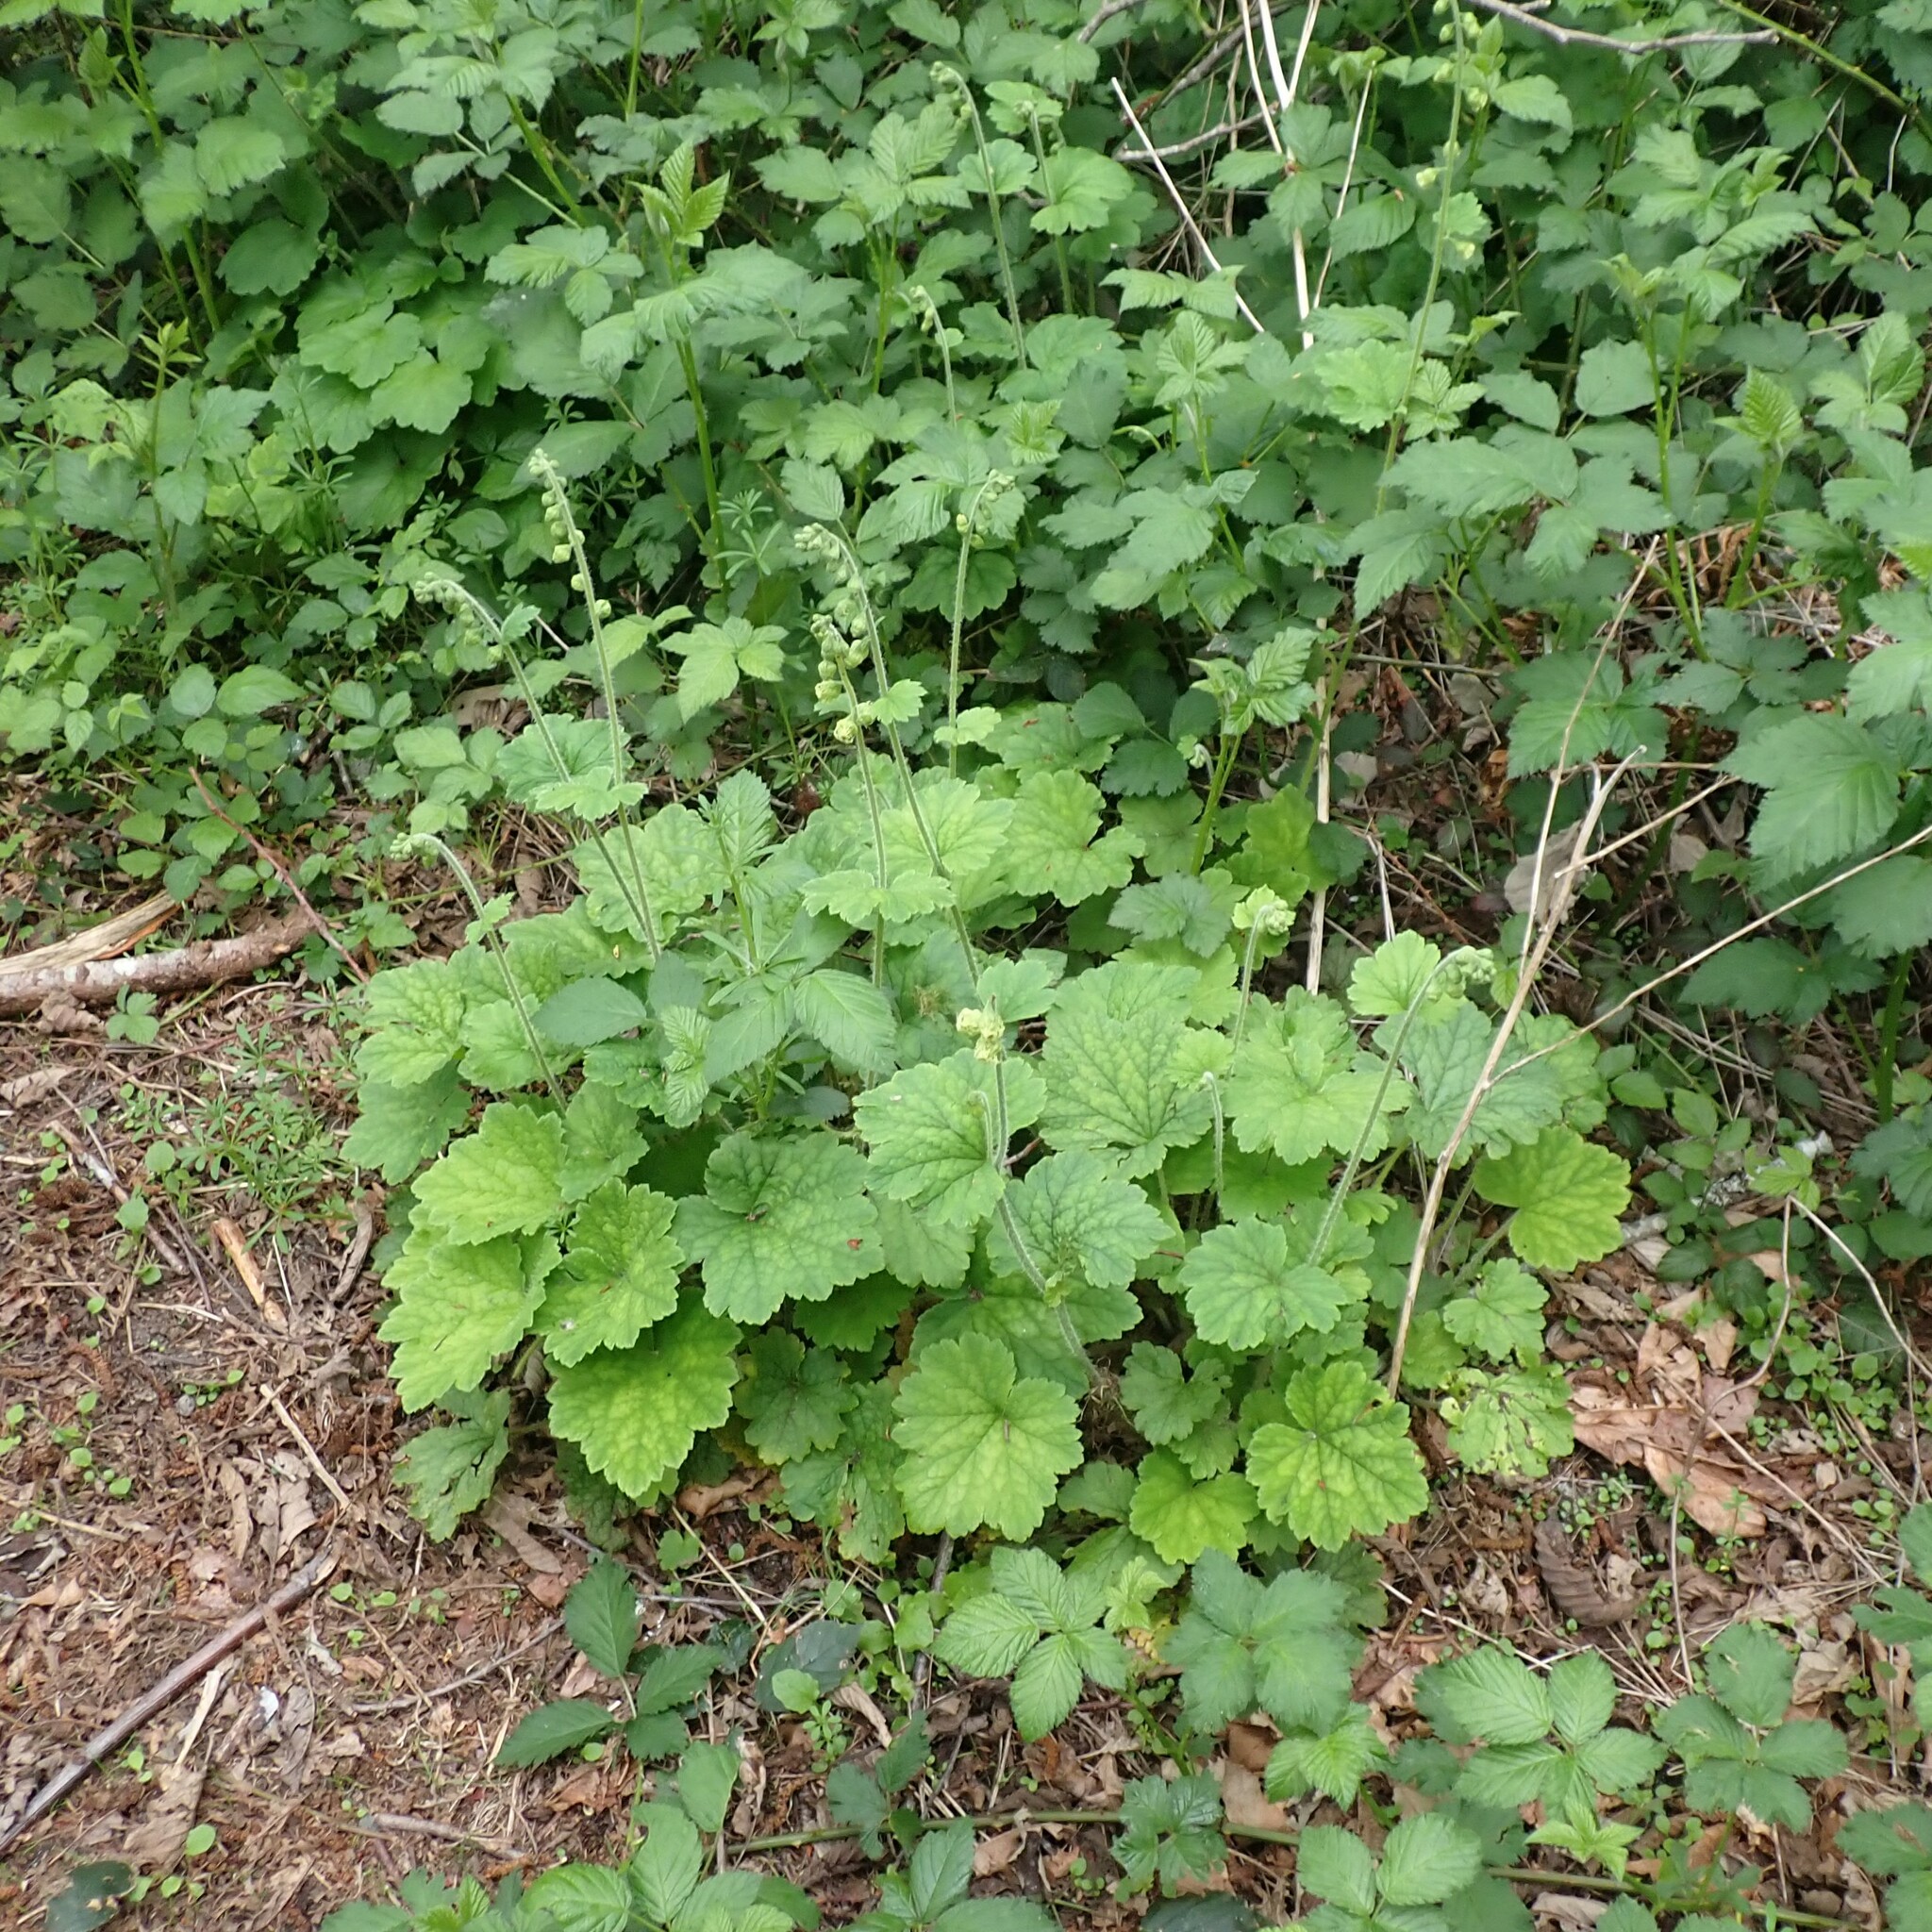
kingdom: Plantae
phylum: Tracheophyta
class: Magnoliopsida
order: Saxifragales
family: Saxifragaceae
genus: Tellima
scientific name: Tellima grandiflora
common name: Fringecups
